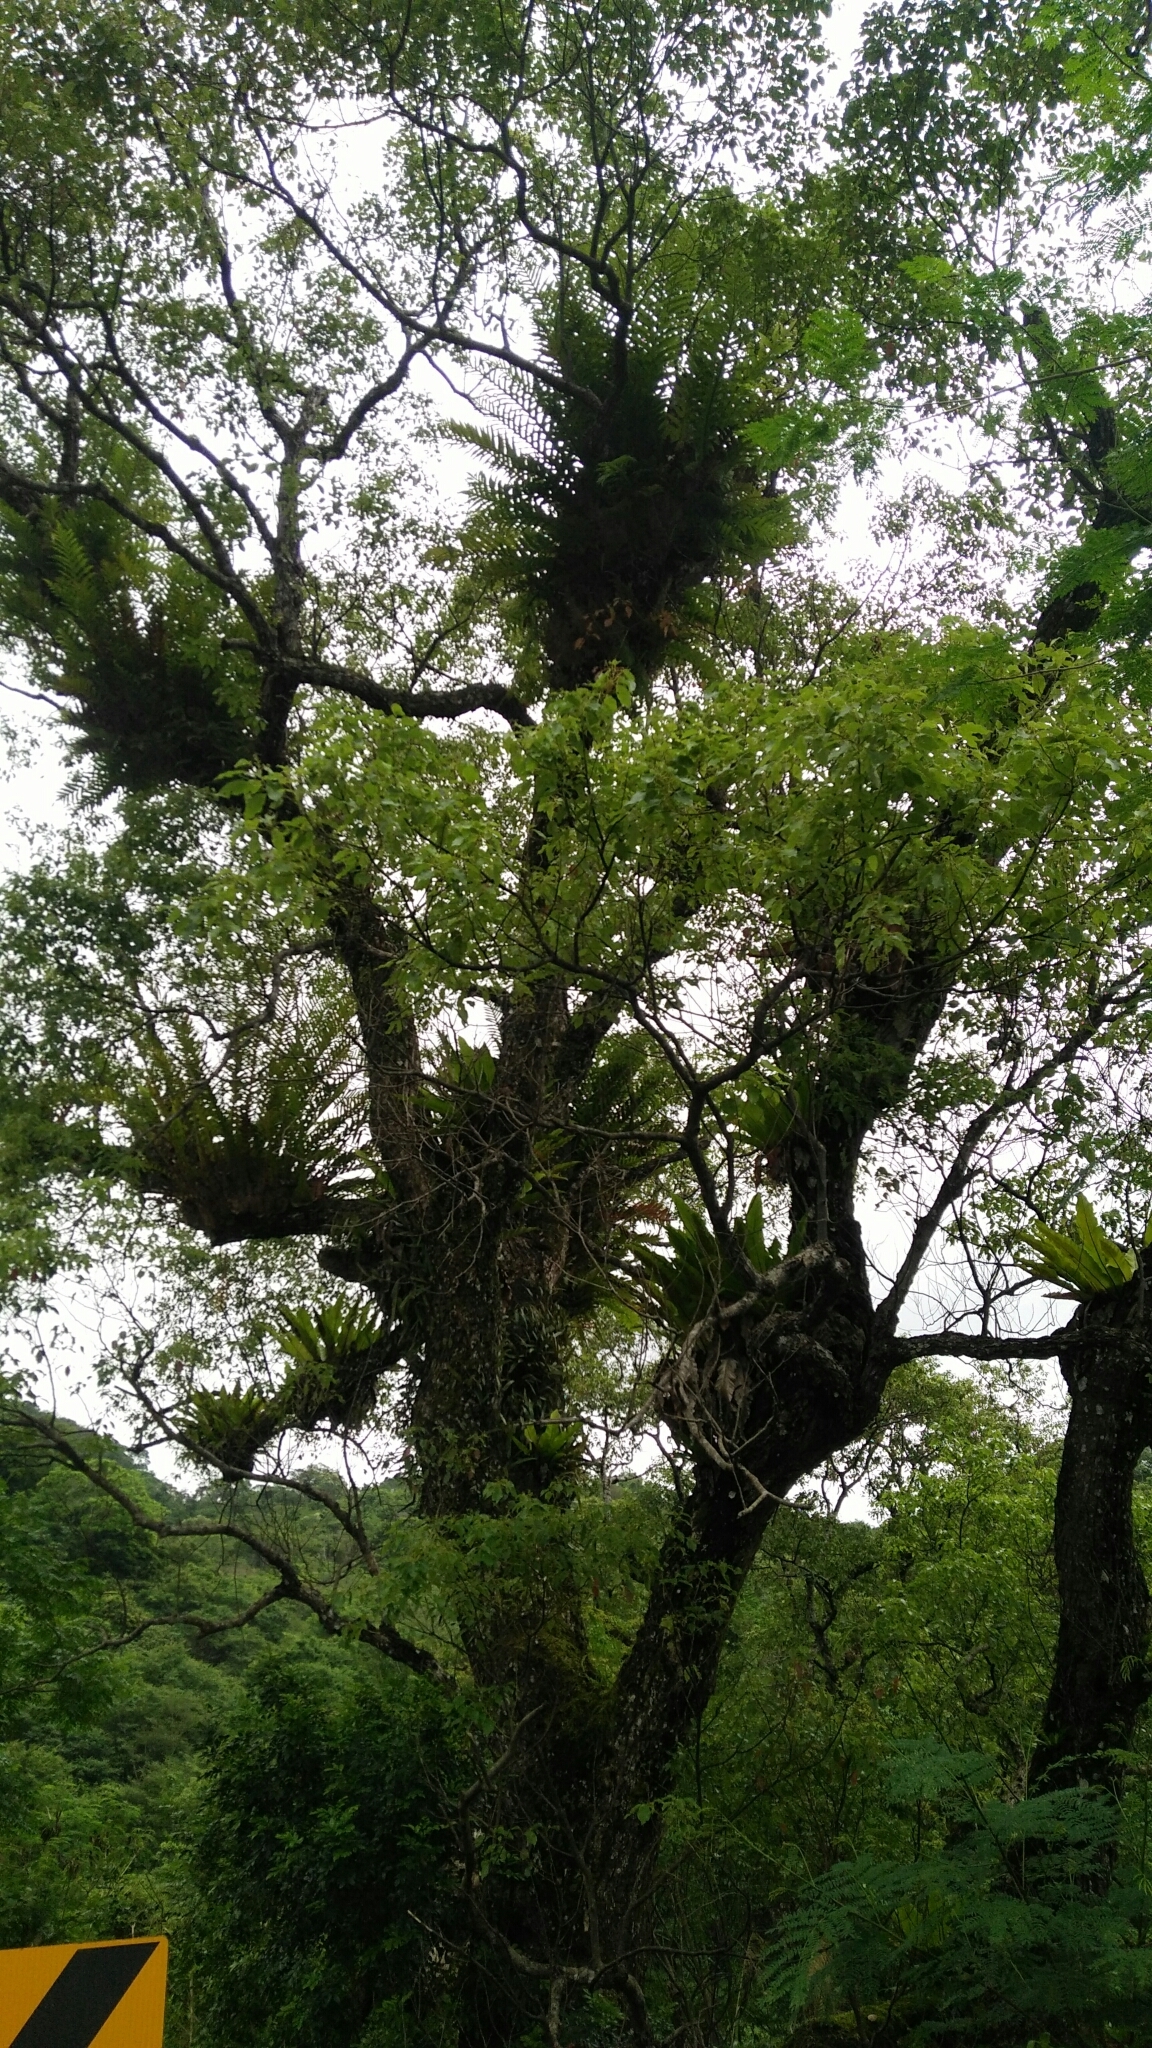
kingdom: Plantae
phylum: Tracheophyta
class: Magnoliopsida
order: Laurales
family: Lauraceae
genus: Cinnamomum
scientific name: Cinnamomum camphora
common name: Camphortree
